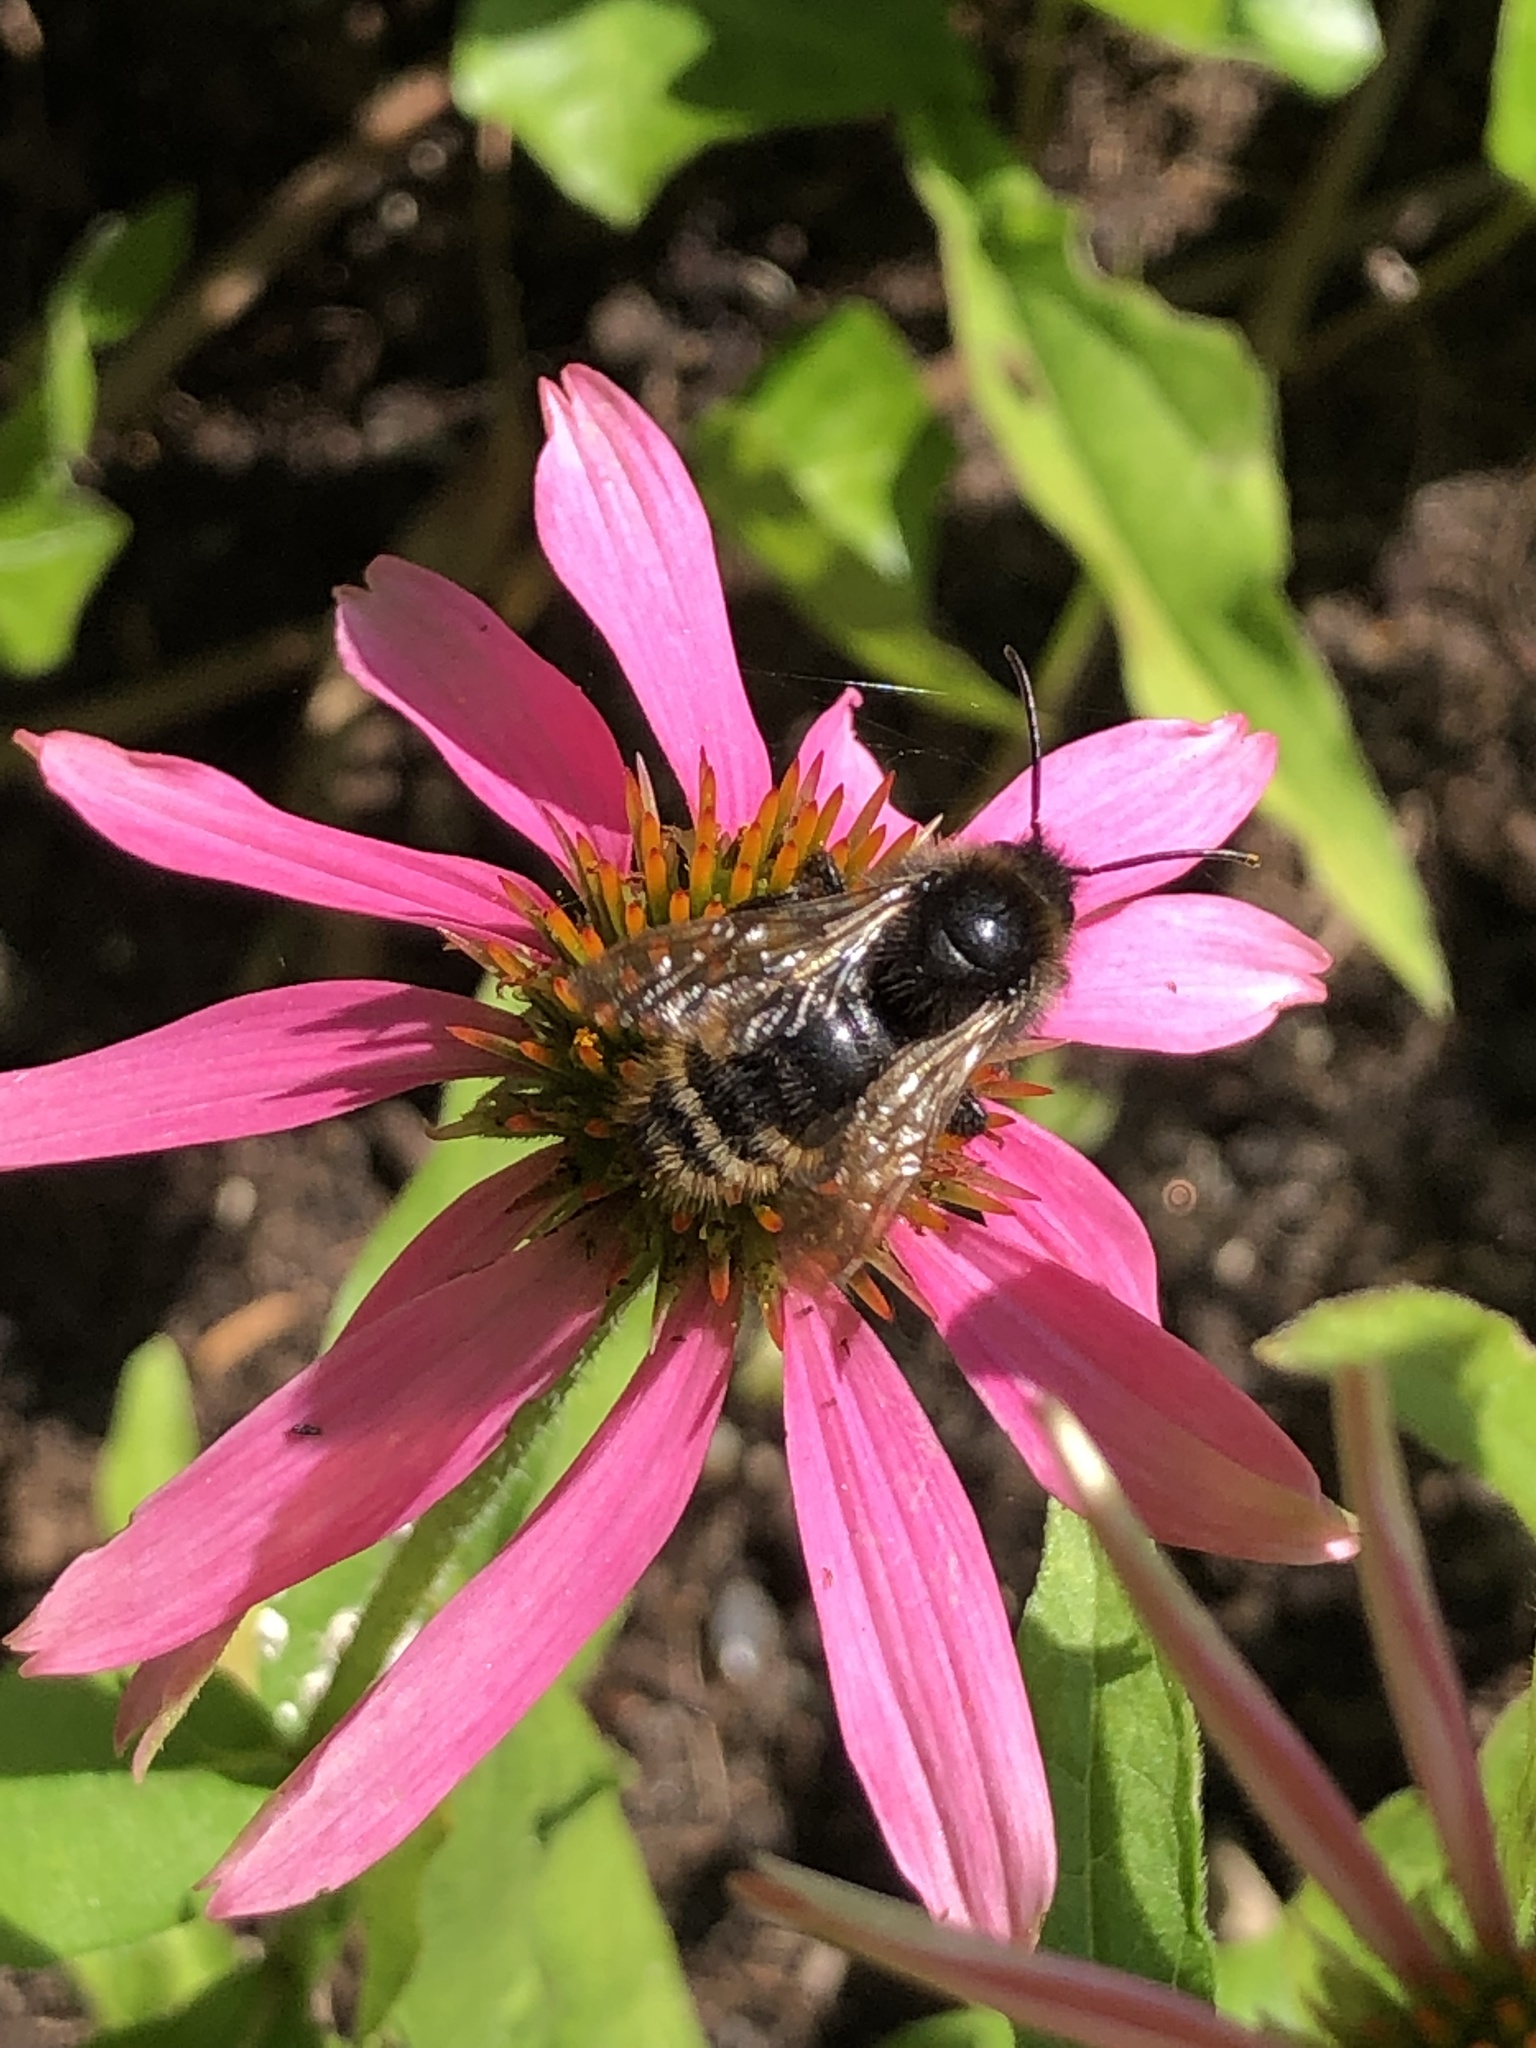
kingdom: Animalia
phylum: Arthropoda
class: Insecta
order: Hymenoptera
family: Apidae
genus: Bombus
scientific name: Bombus campestris
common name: Field cuckoo-bee
